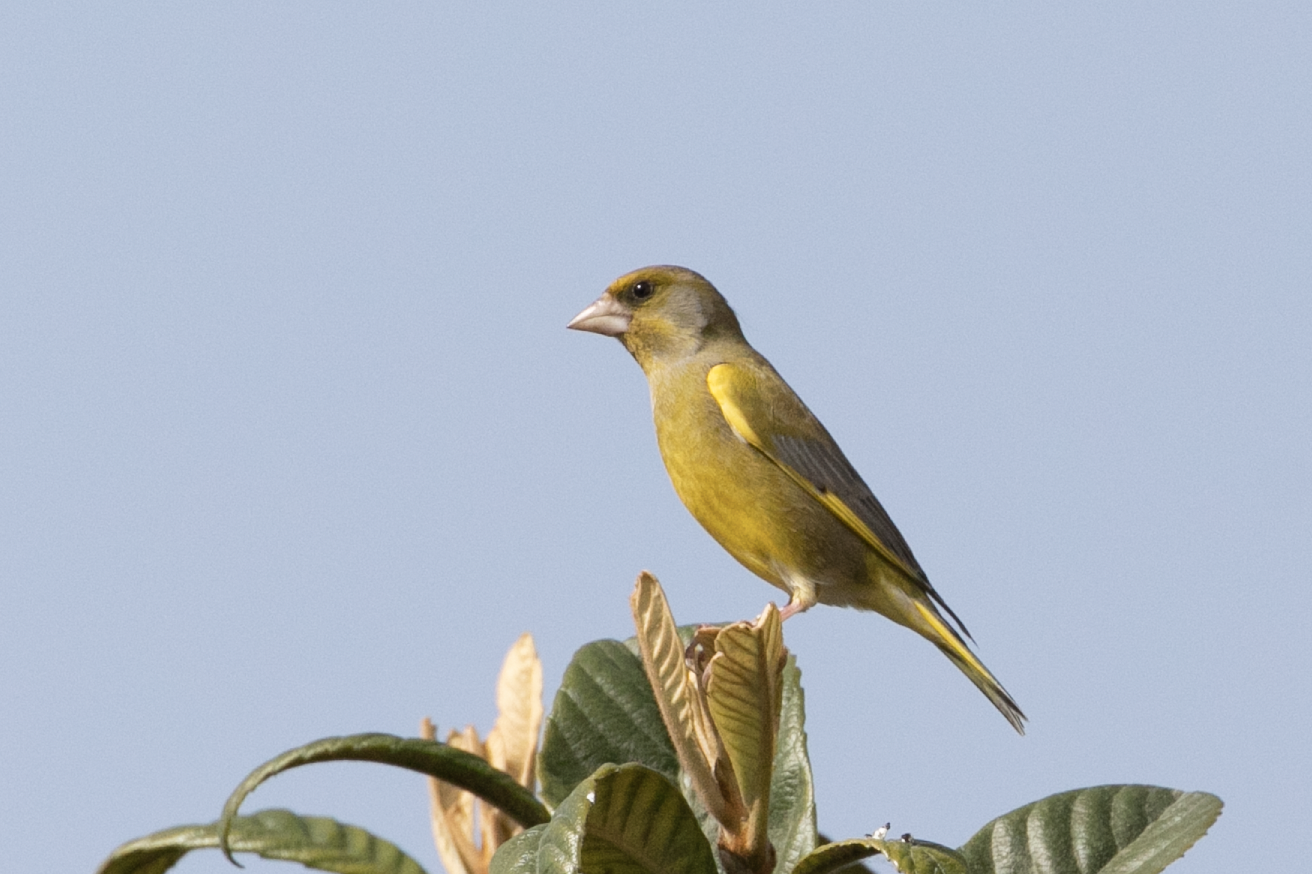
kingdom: Plantae
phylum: Tracheophyta
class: Liliopsida
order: Poales
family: Poaceae
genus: Chloris
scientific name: Chloris chloris
